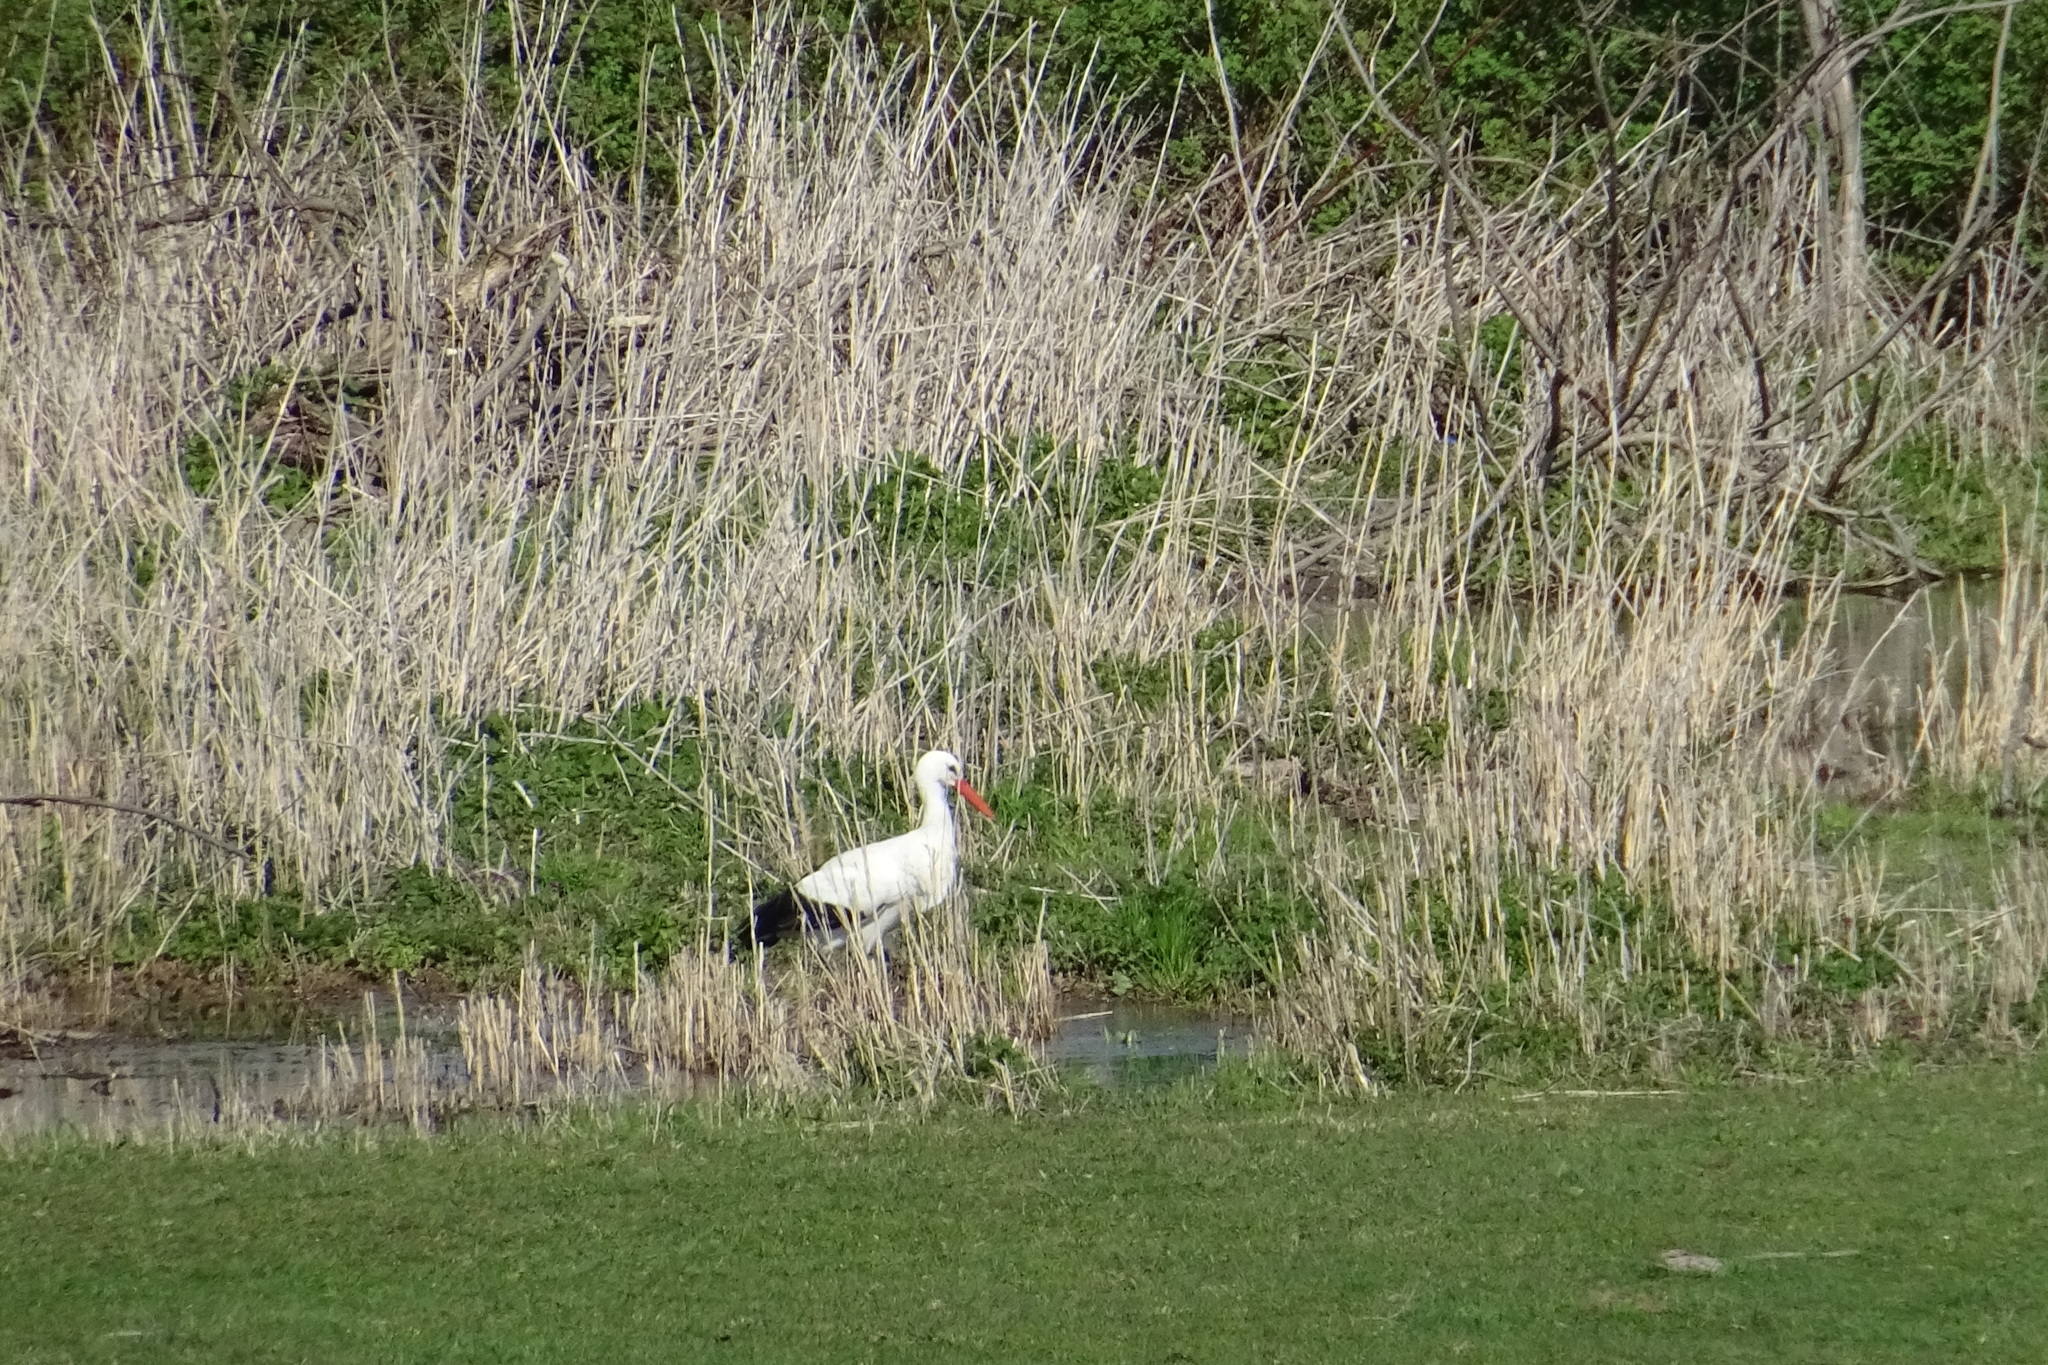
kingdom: Animalia
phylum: Chordata
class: Aves
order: Ciconiiformes
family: Ciconiidae
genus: Ciconia
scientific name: Ciconia ciconia
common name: White stork
